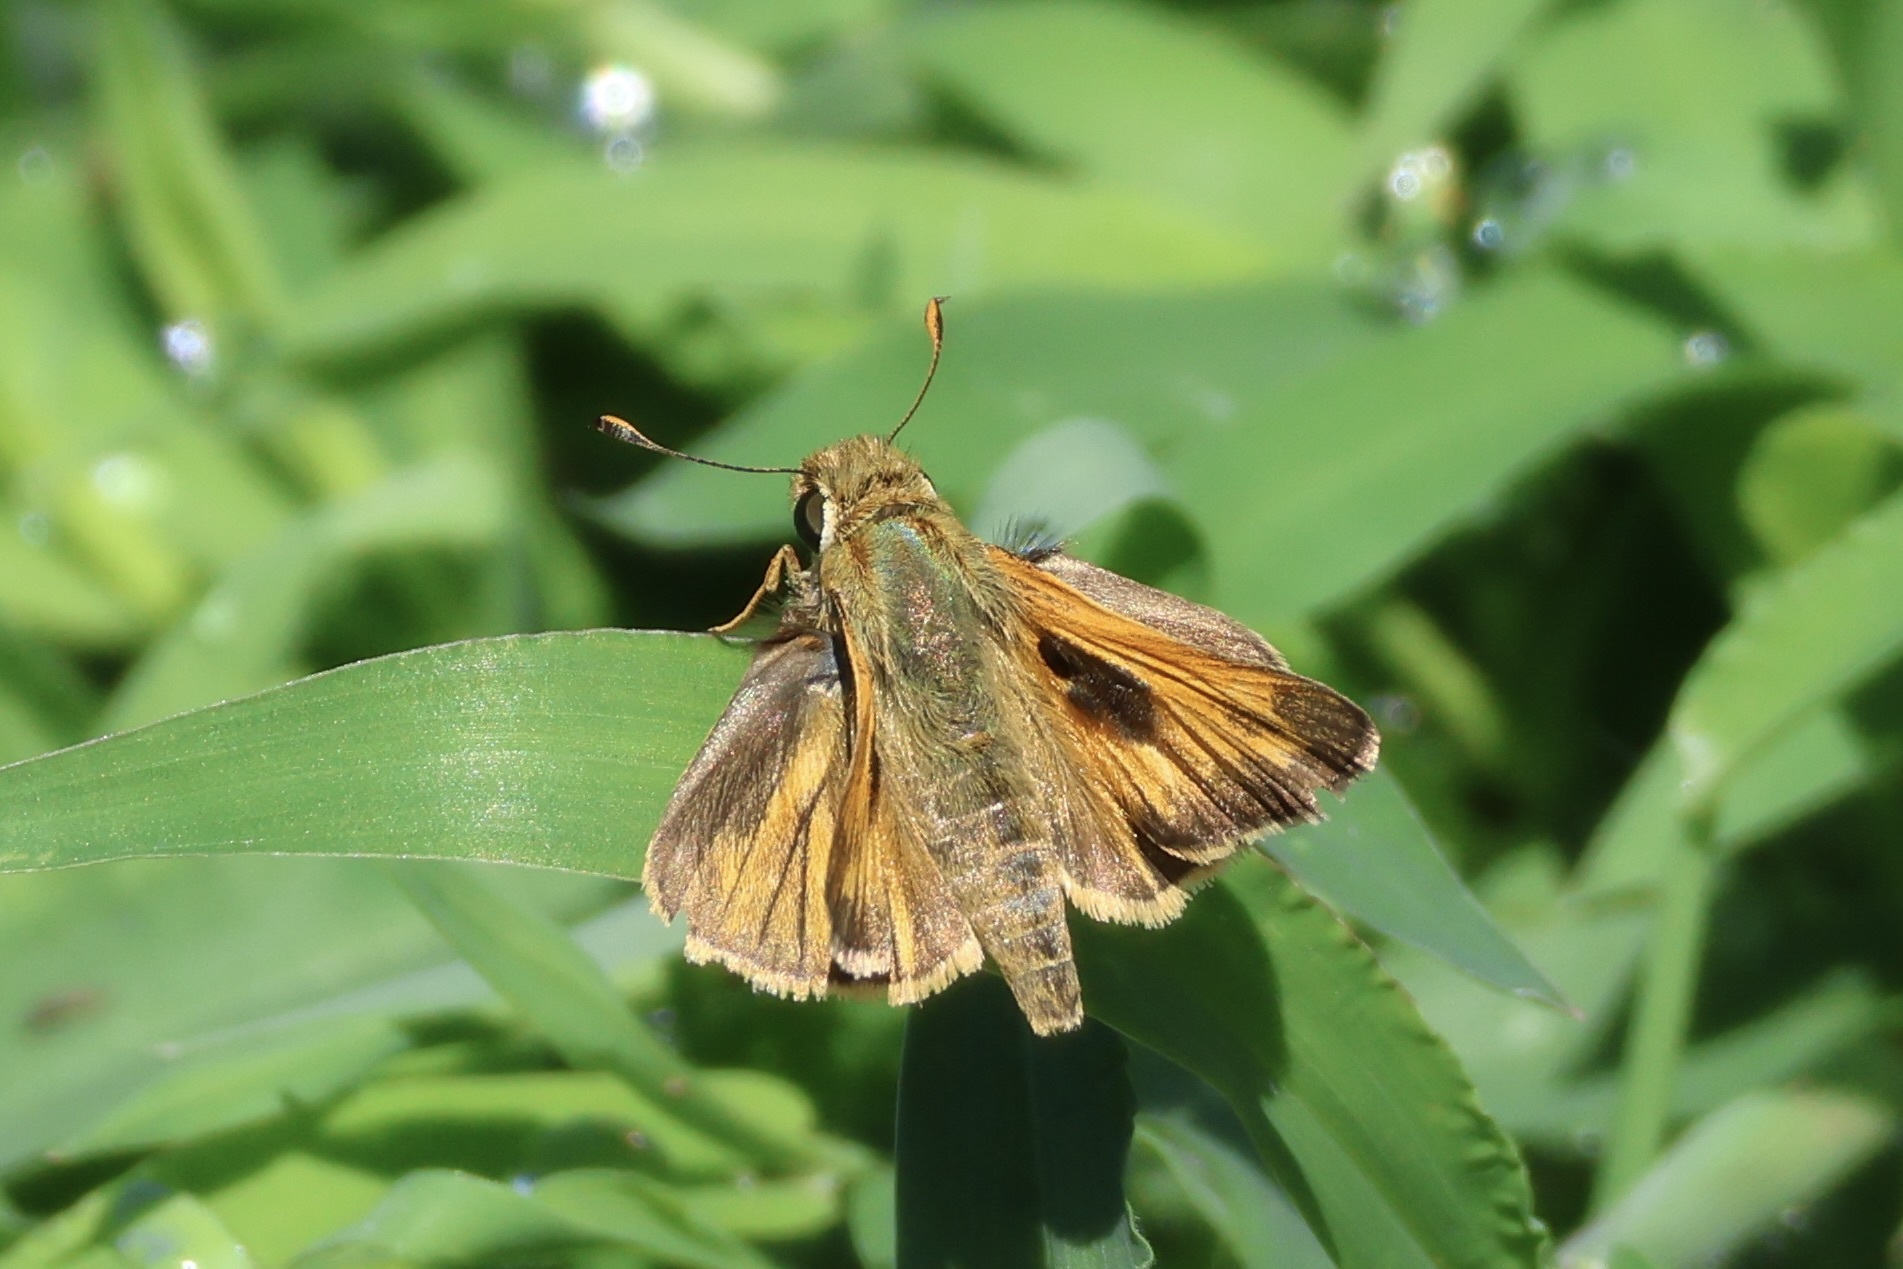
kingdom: Animalia
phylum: Arthropoda
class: Insecta
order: Lepidoptera
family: Hesperiidae
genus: Atalopedes
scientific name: Atalopedes
